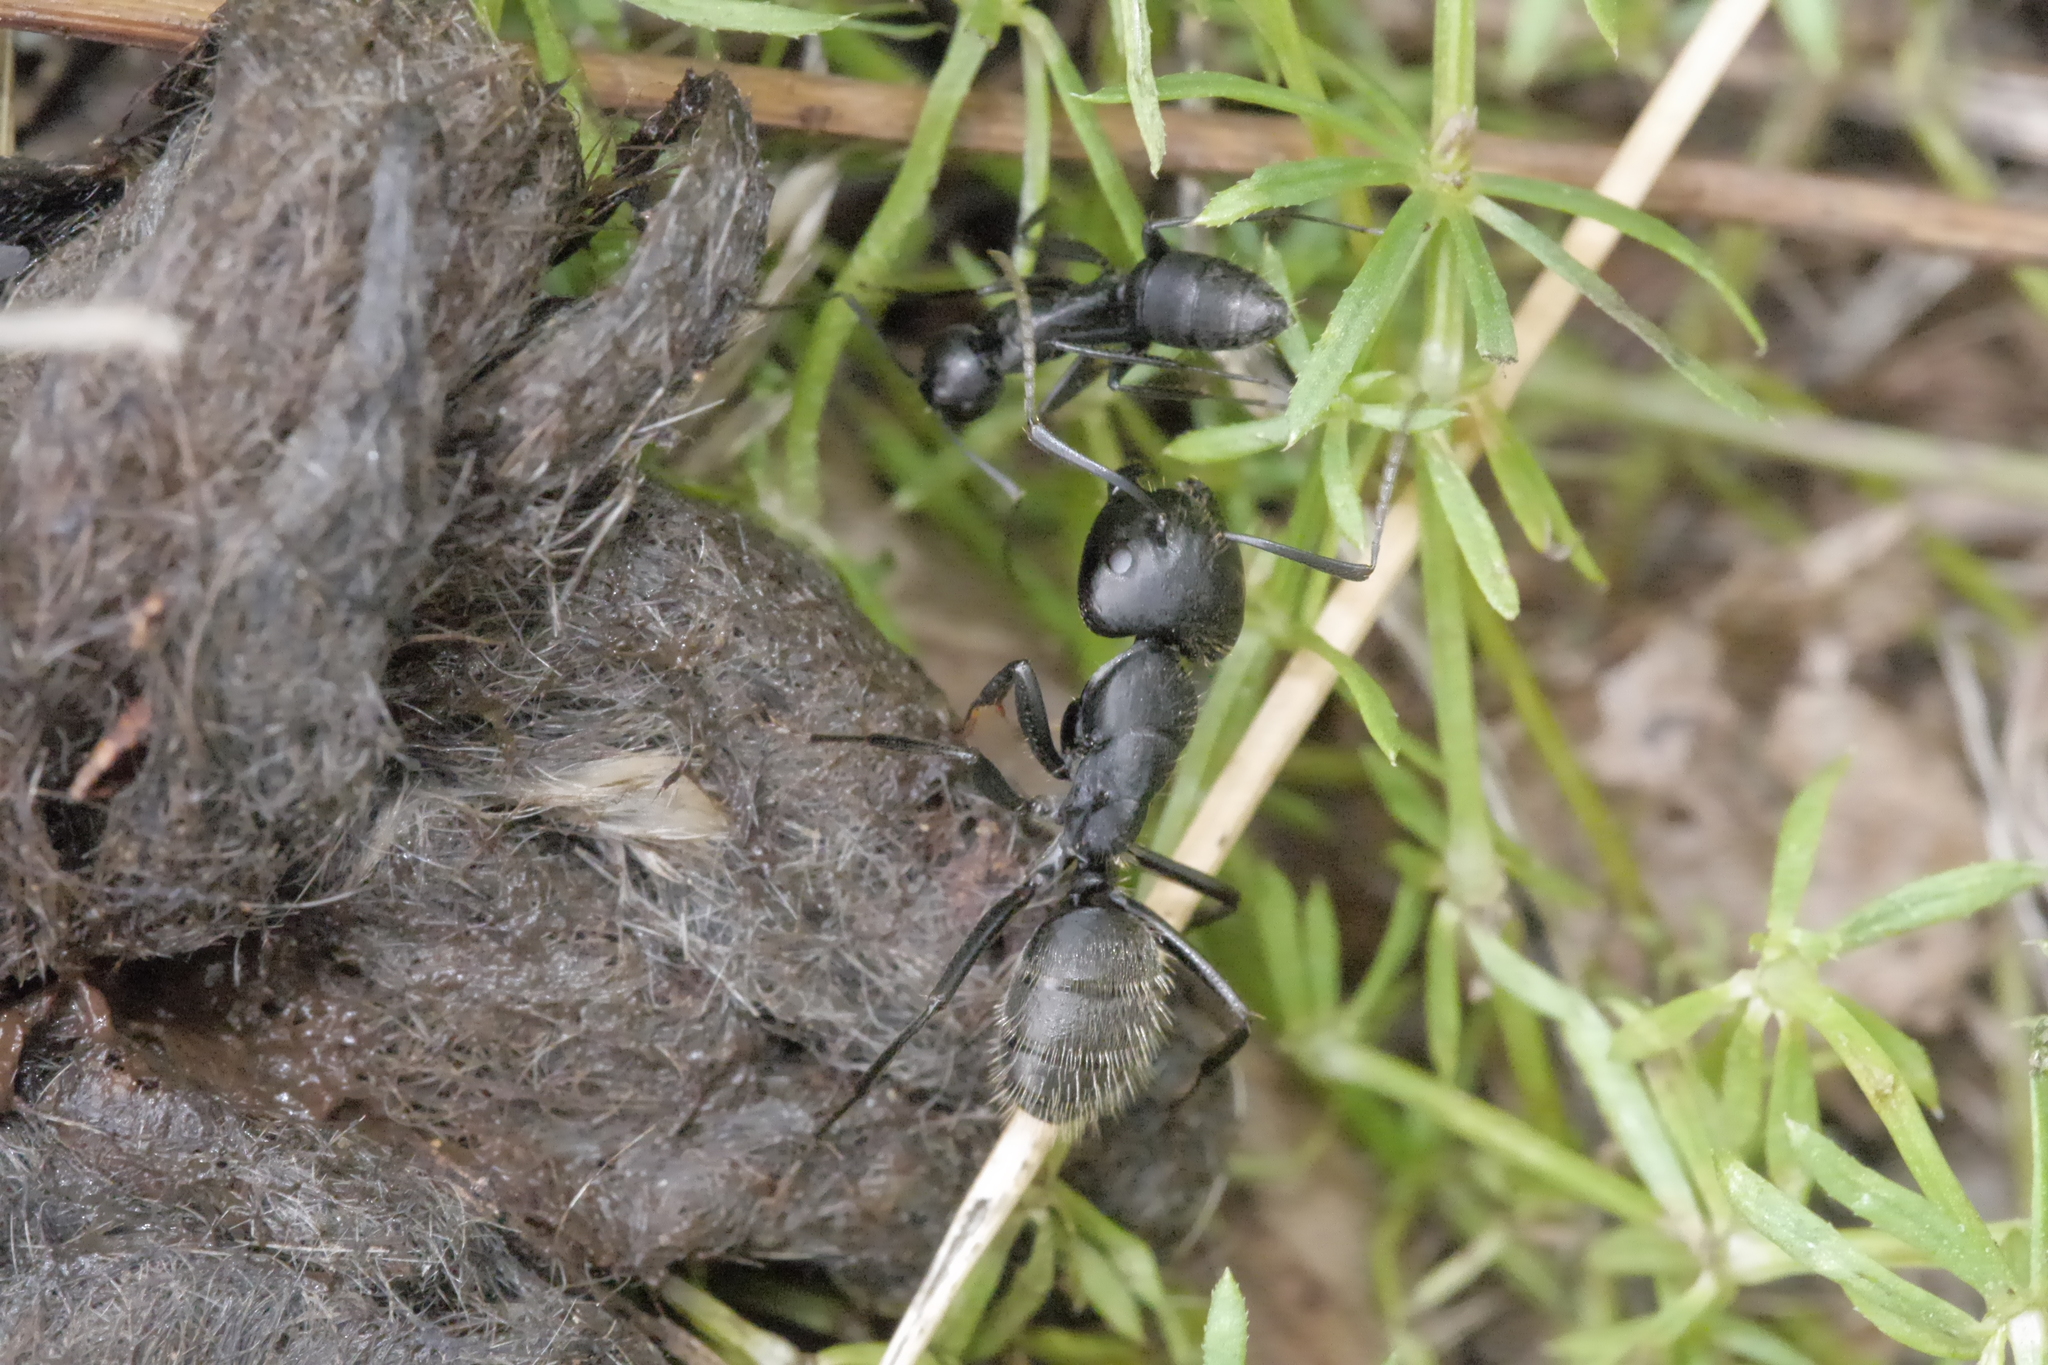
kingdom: Animalia
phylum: Arthropoda
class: Insecta
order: Hymenoptera
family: Formicidae
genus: Camponotus
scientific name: Camponotus vagus
